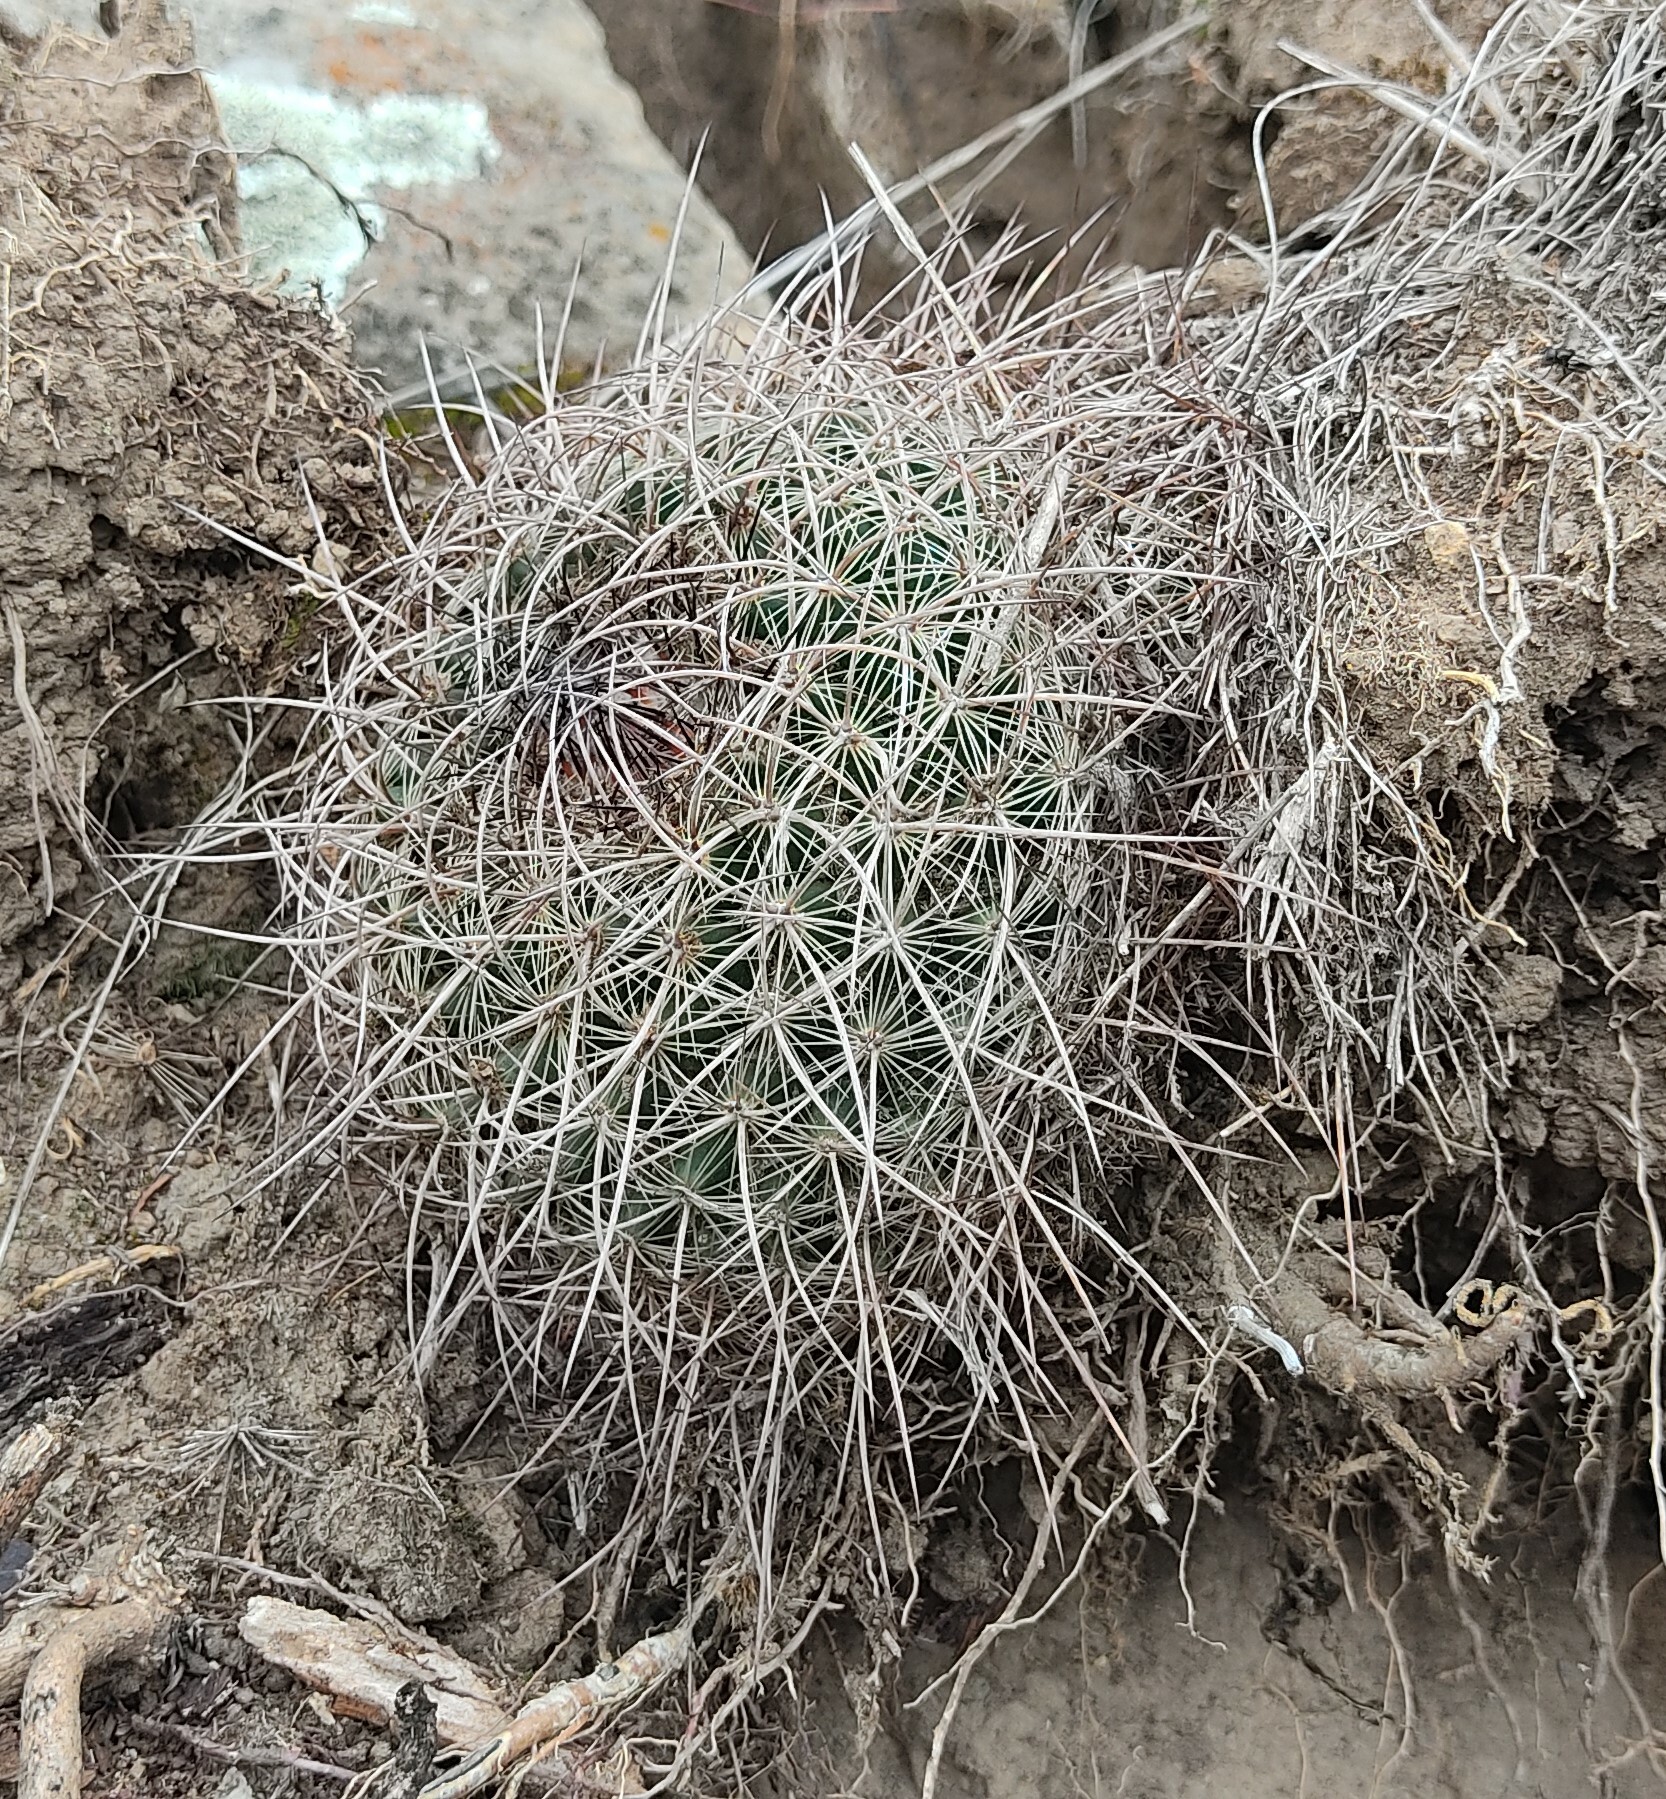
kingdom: Plantae
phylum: Tracheophyta
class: Magnoliopsida
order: Caryophyllales
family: Cactaceae
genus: Mammillaria
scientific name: Mammillaria discolor
